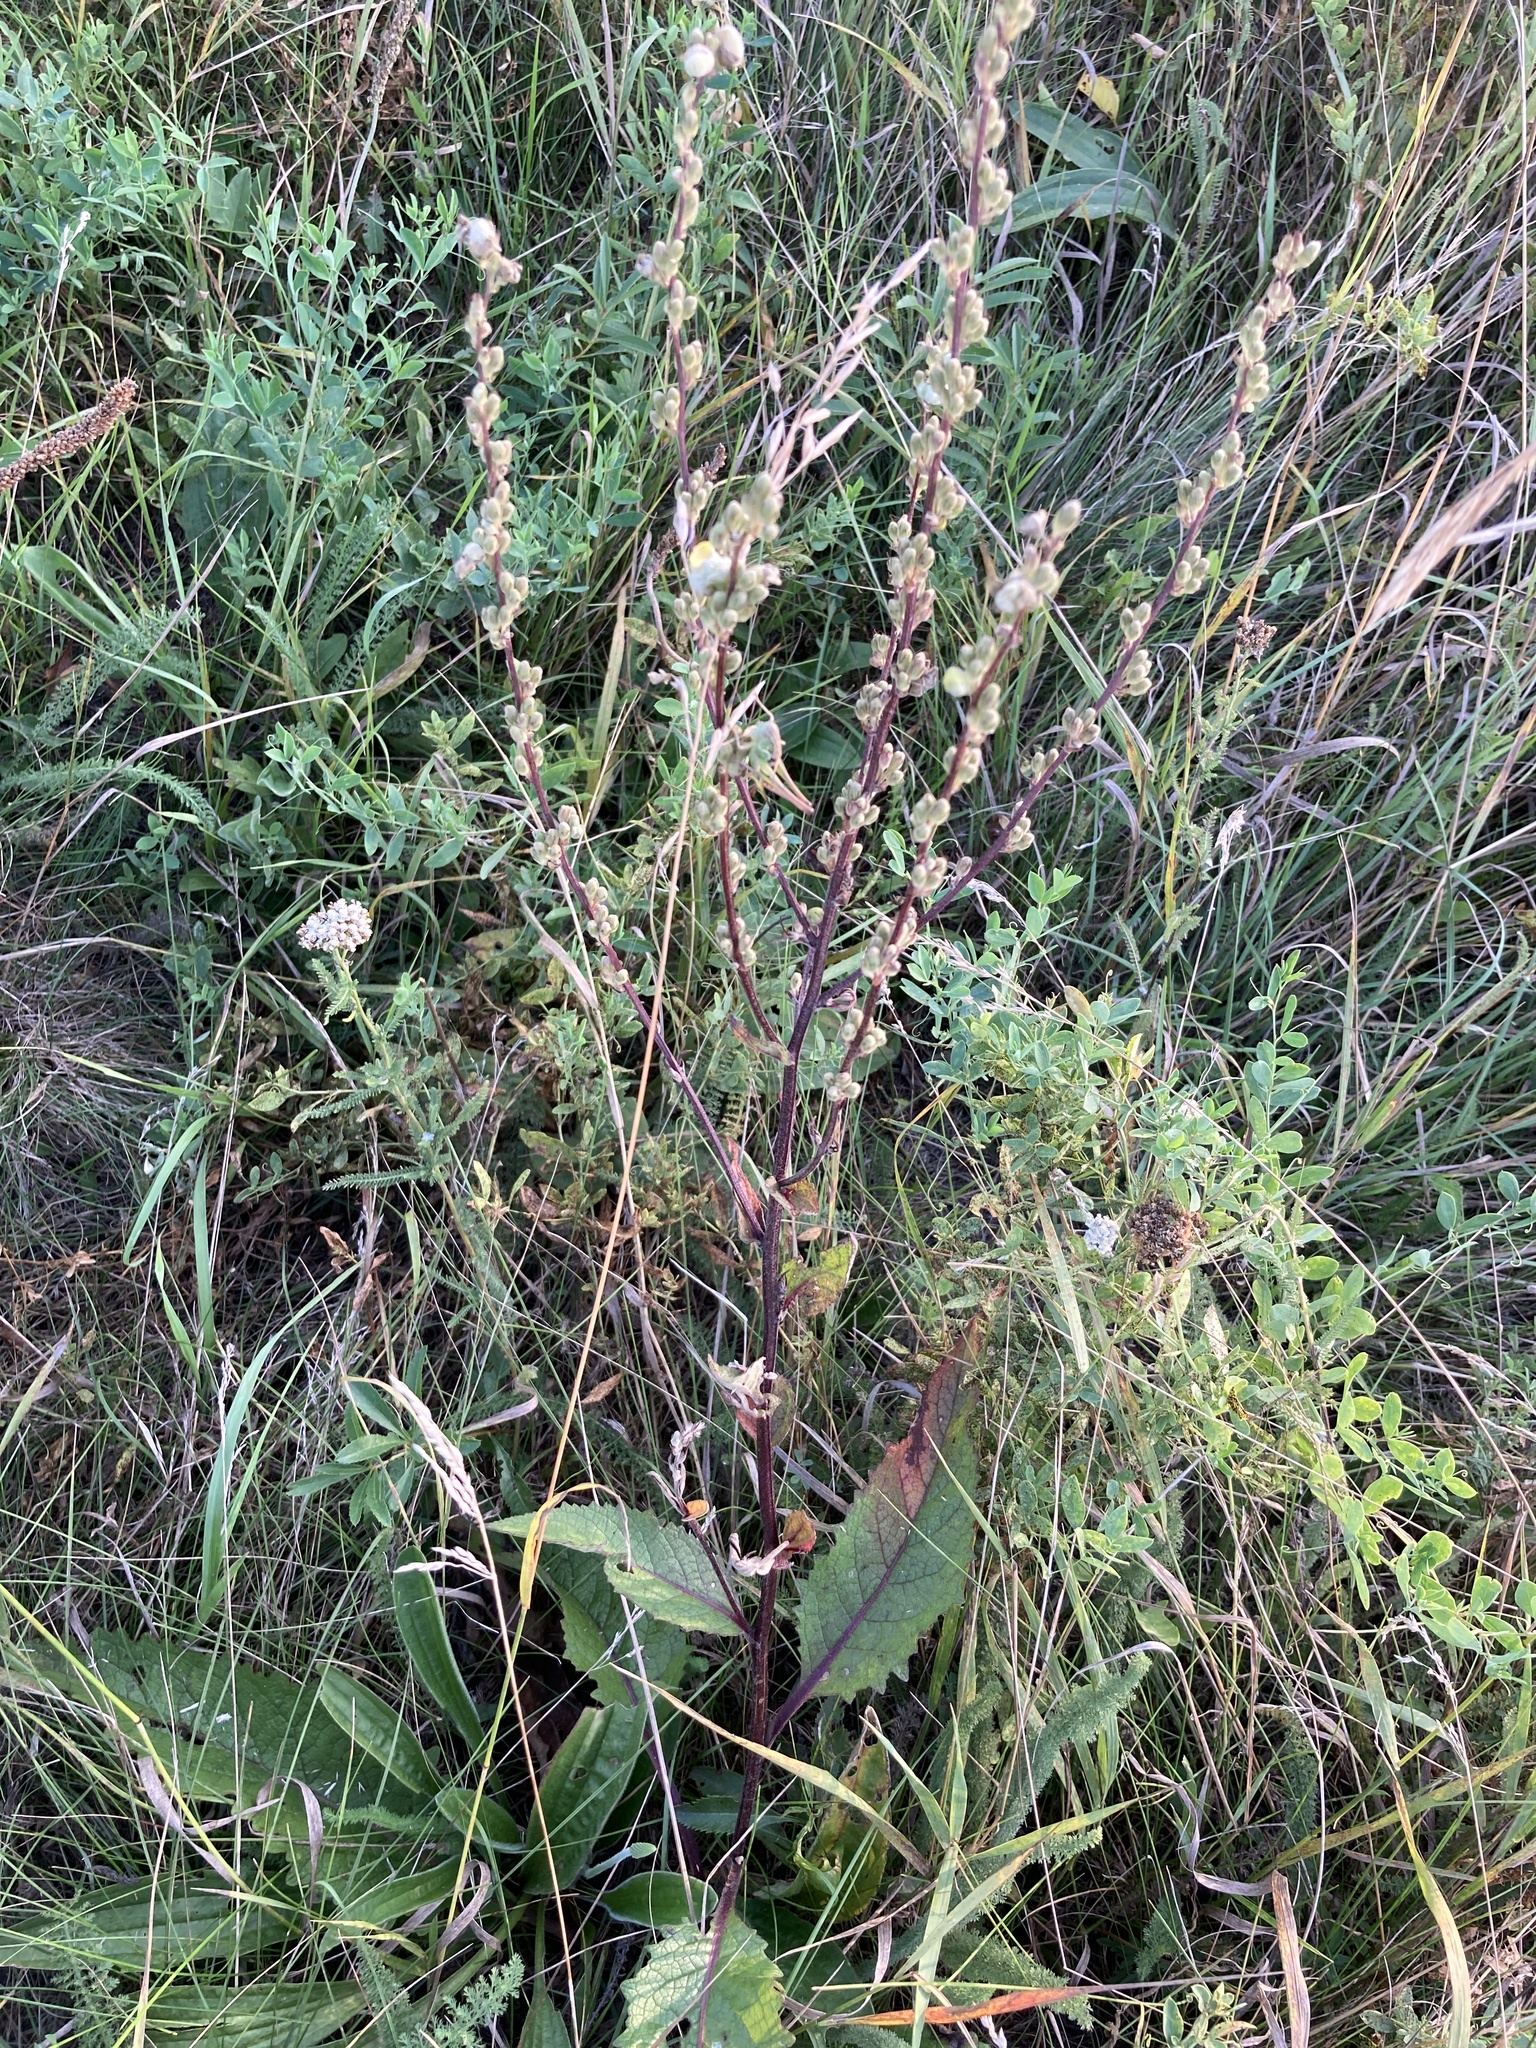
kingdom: Plantae
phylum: Tracheophyta
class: Magnoliopsida
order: Lamiales
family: Scrophulariaceae
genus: Verbascum
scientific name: Verbascum chaixii
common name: Nettle-leaved mullein
